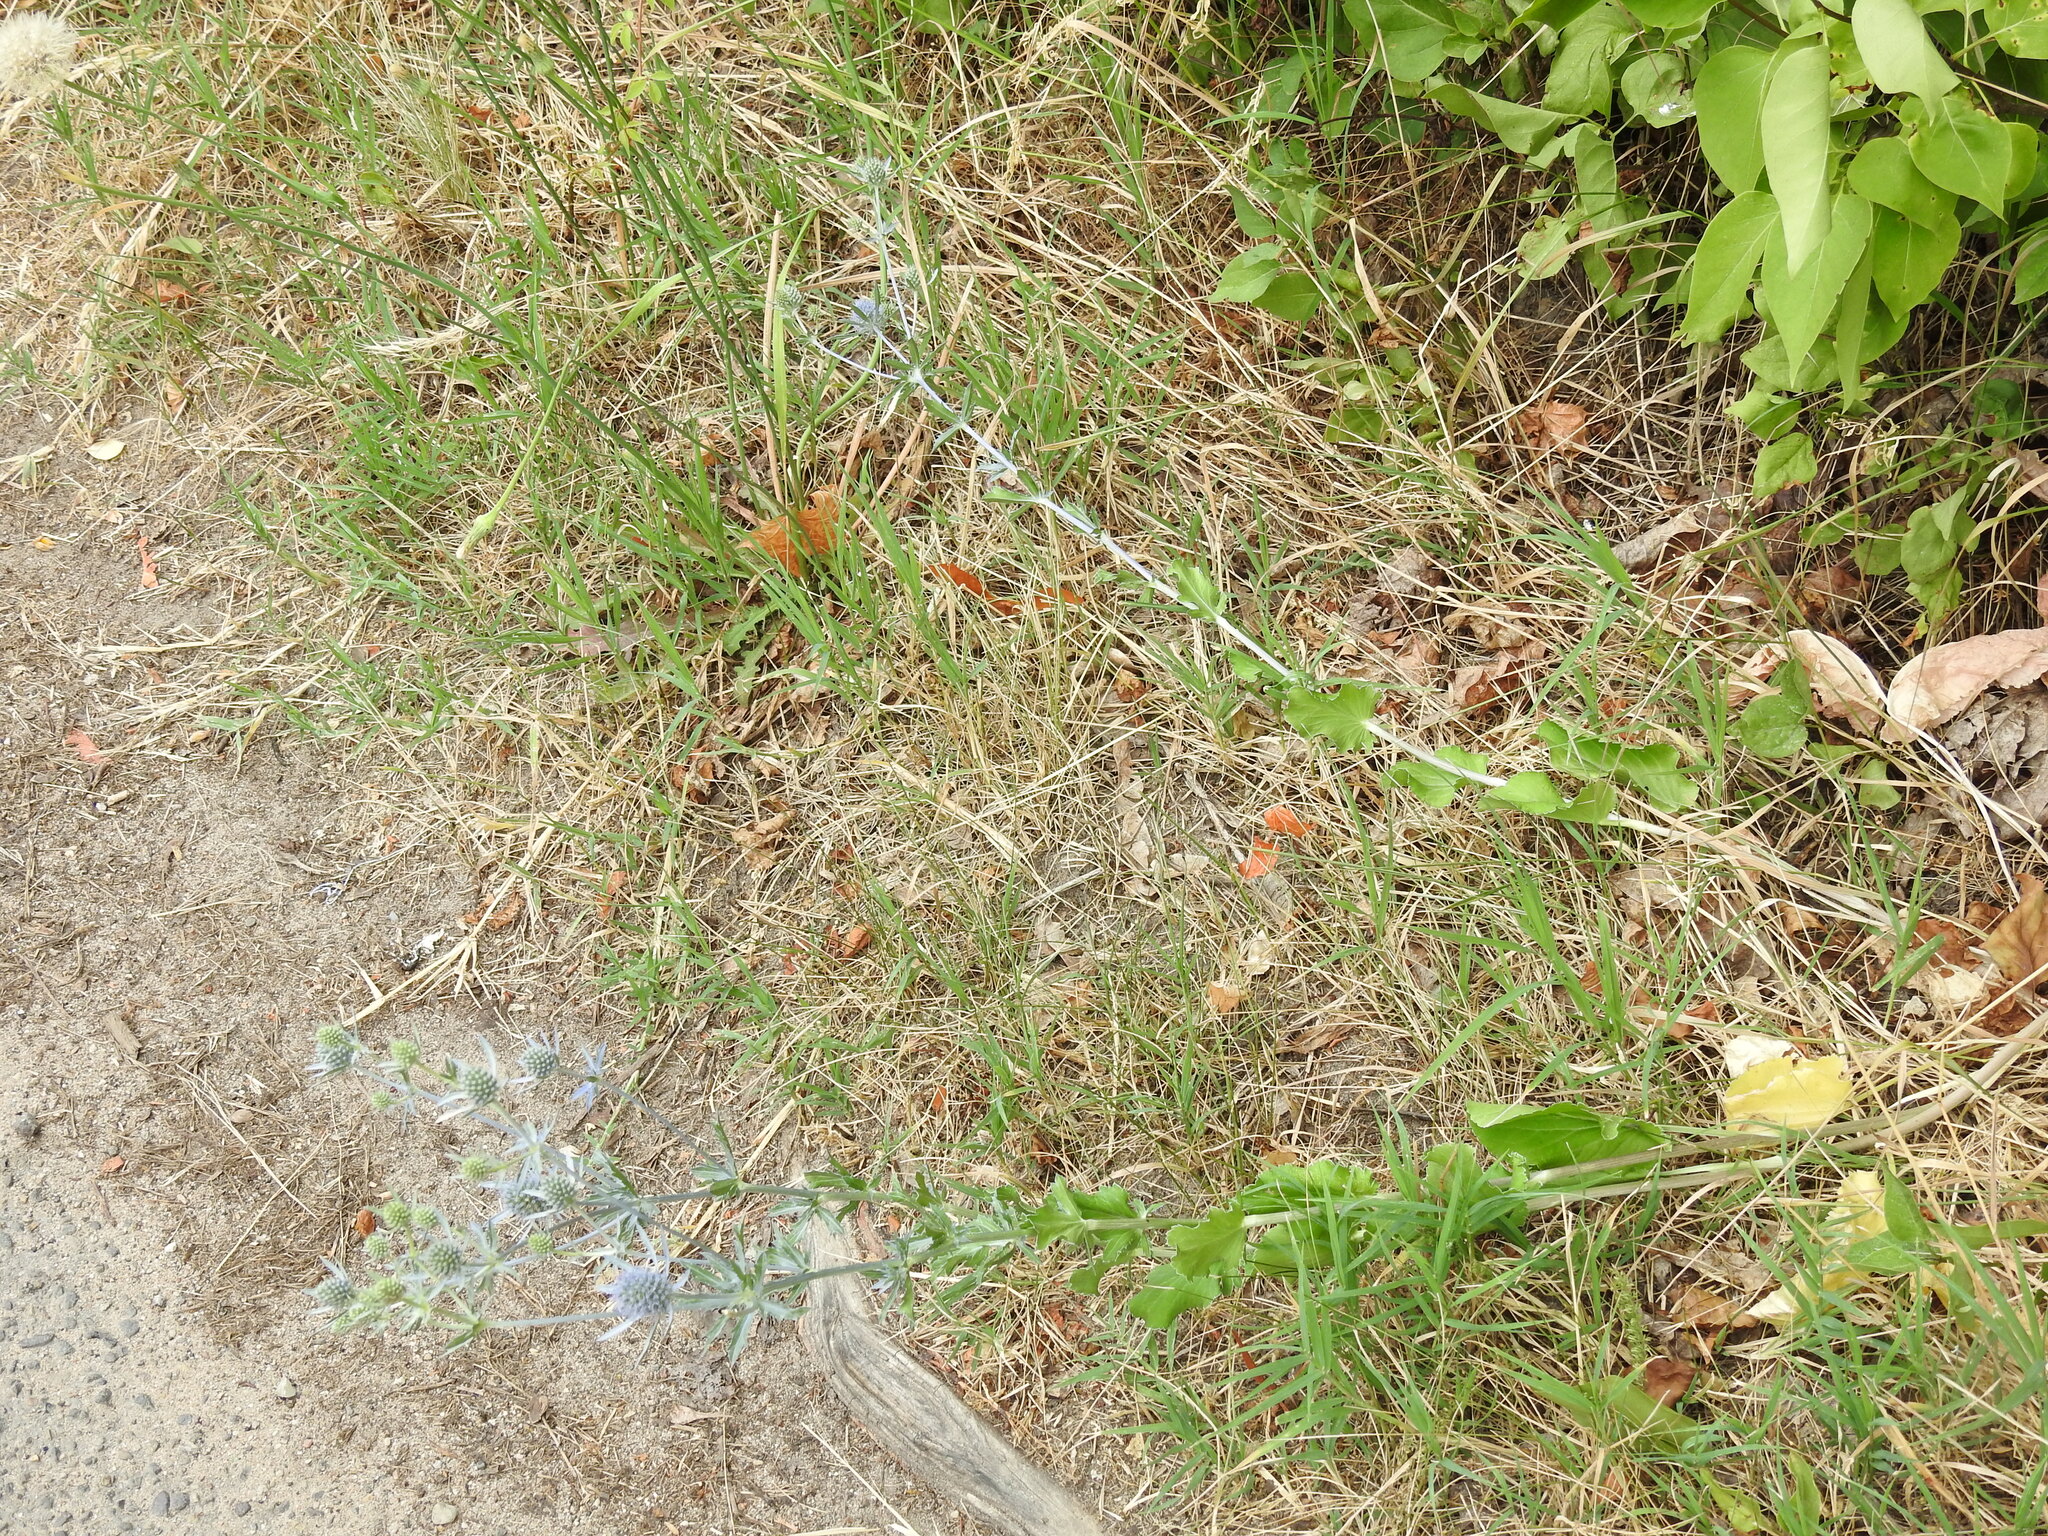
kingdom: Plantae
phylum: Tracheophyta
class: Magnoliopsida
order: Apiales
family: Apiaceae
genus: Eryngium
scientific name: Eryngium planum
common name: Blue eryngo
